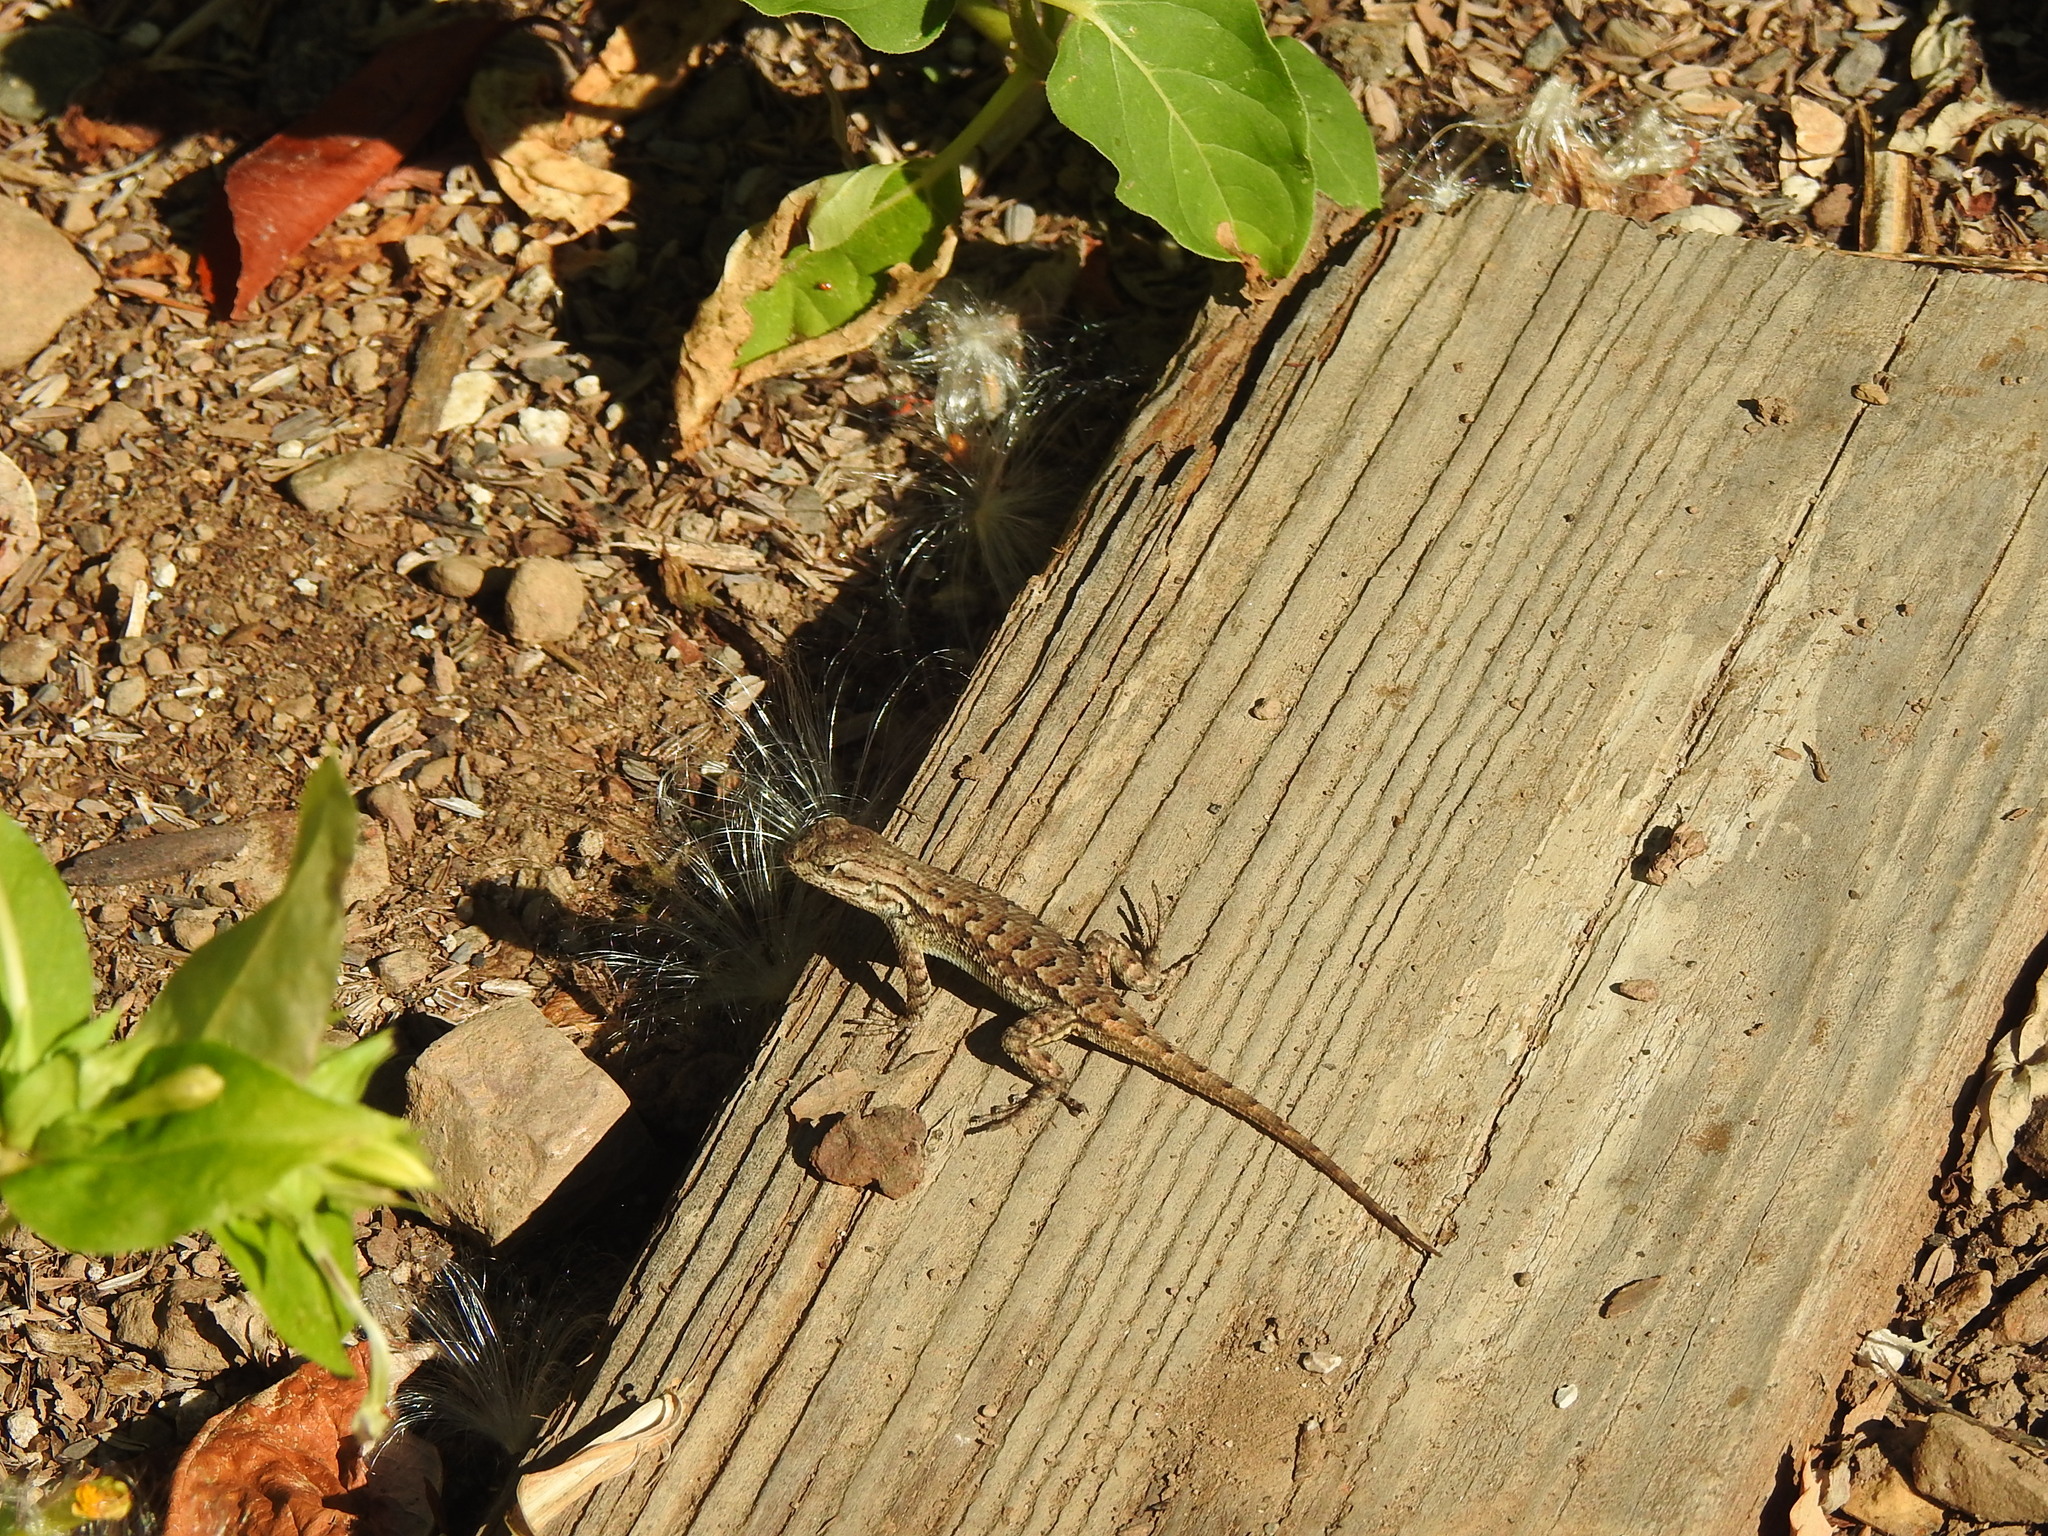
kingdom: Animalia
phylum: Chordata
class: Squamata
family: Phrynosomatidae
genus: Sceloporus
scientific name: Sceloporus occidentalis
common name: Western fence lizard
